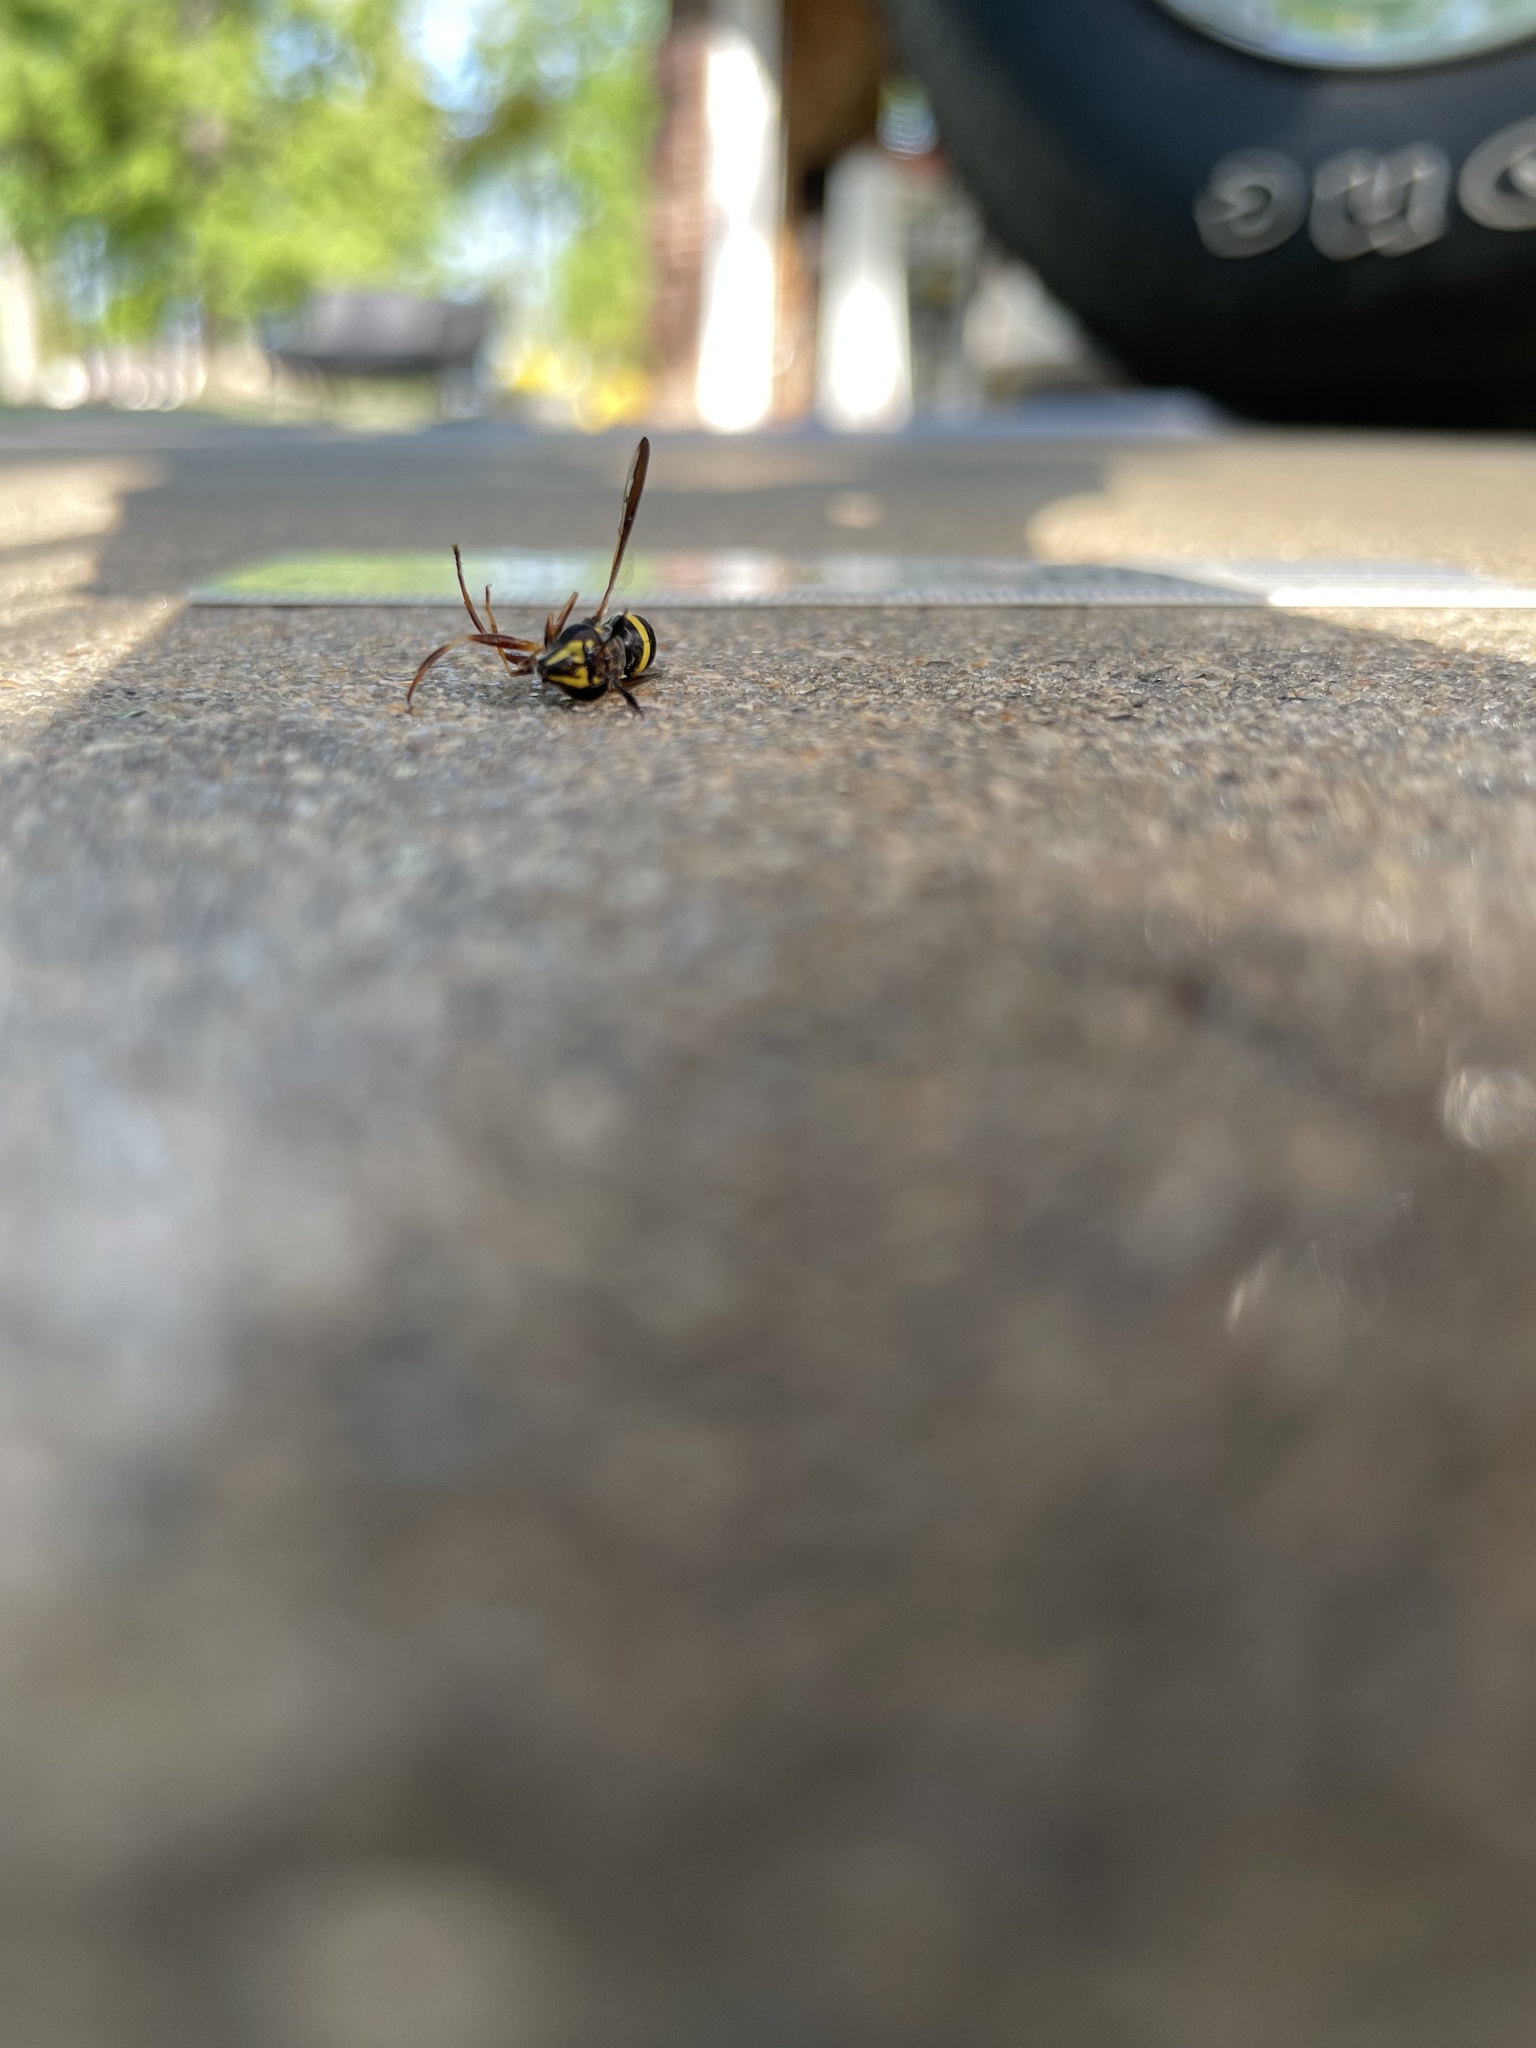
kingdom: Animalia
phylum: Arthropoda
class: Insecta
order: Diptera
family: Syrphidae
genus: Sphiximorpha
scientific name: Sphiximorpha willistoni
